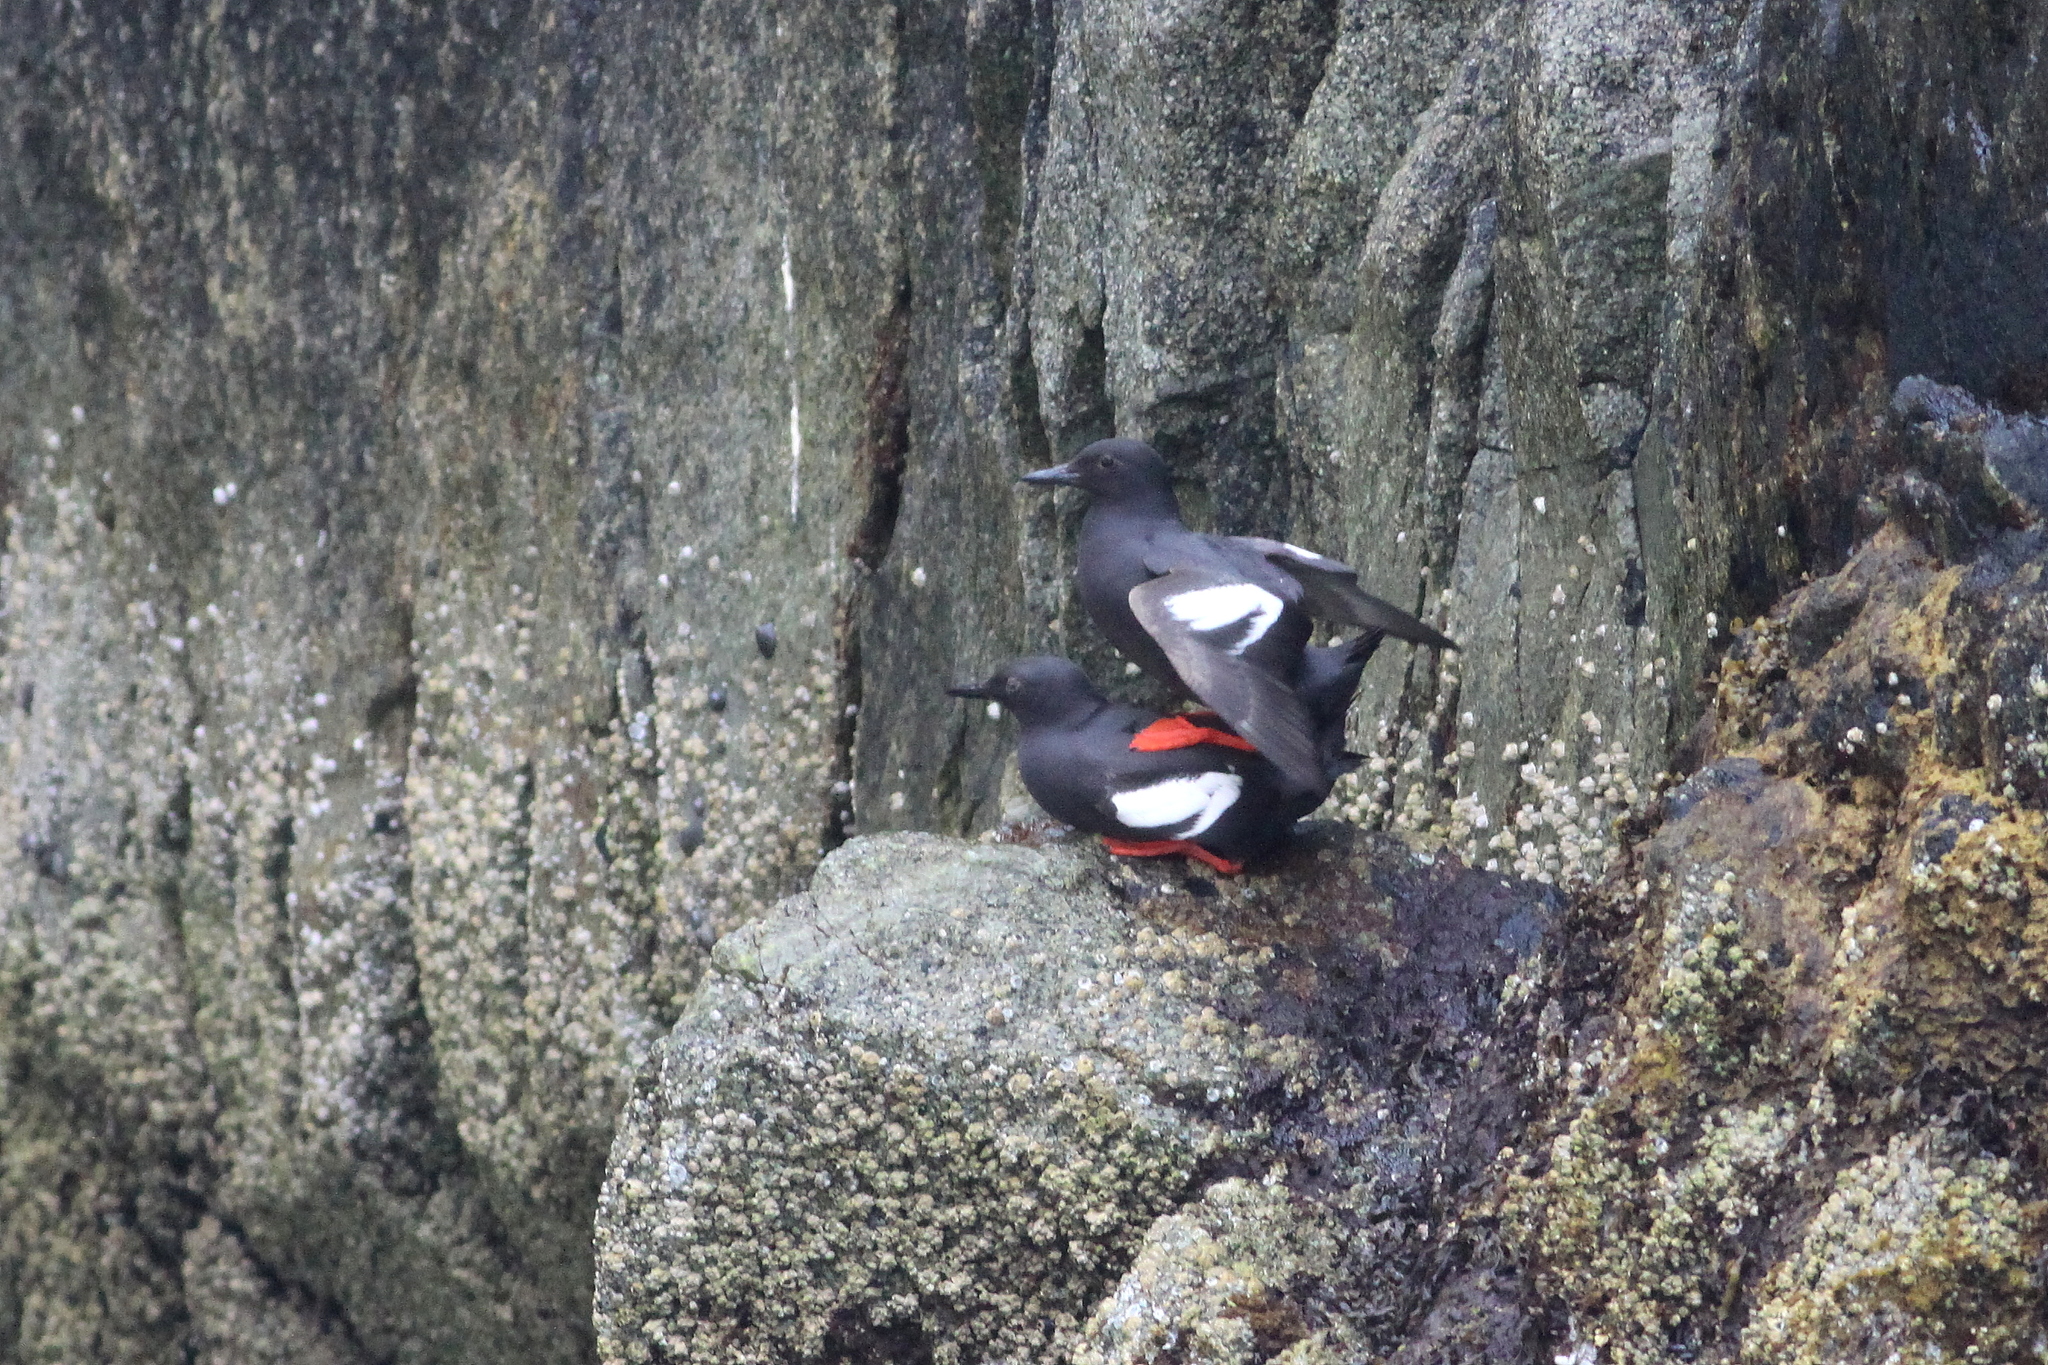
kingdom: Animalia
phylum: Chordata
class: Aves
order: Charadriiformes
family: Alcidae
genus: Cepphus
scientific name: Cepphus columba
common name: Pigeon guillemot
